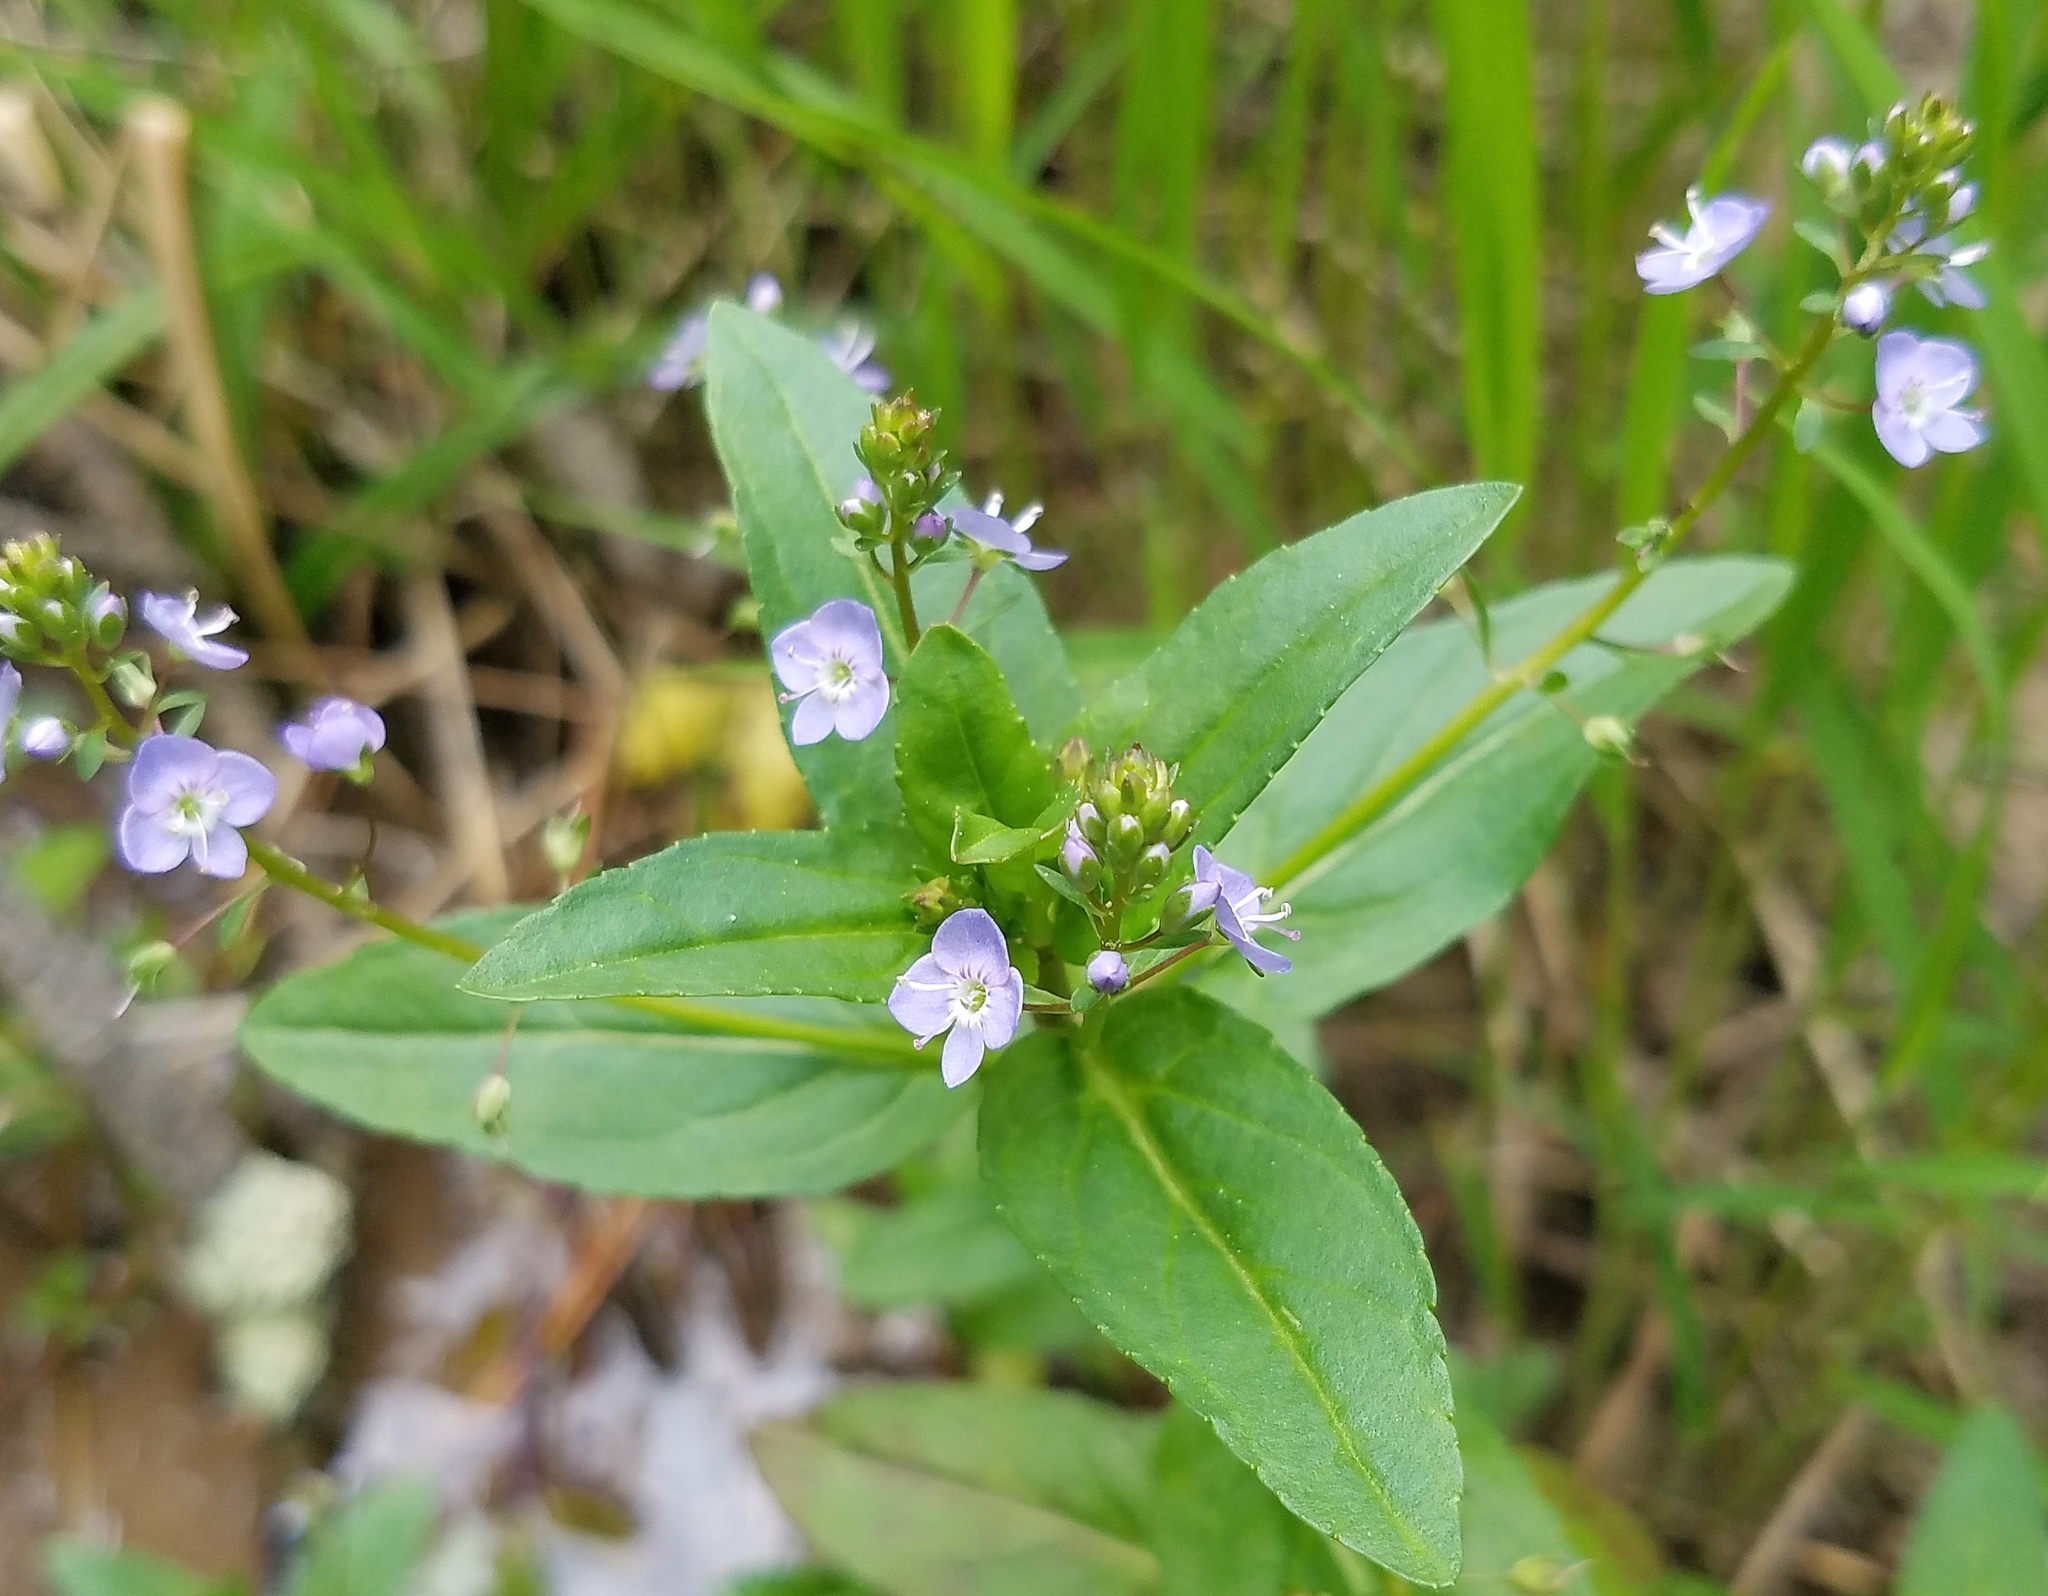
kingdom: Plantae
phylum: Tracheophyta
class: Magnoliopsida
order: Lamiales
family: Plantaginaceae
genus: Veronica
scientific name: Veronica anagallis-aquatica
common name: Water speedwell
